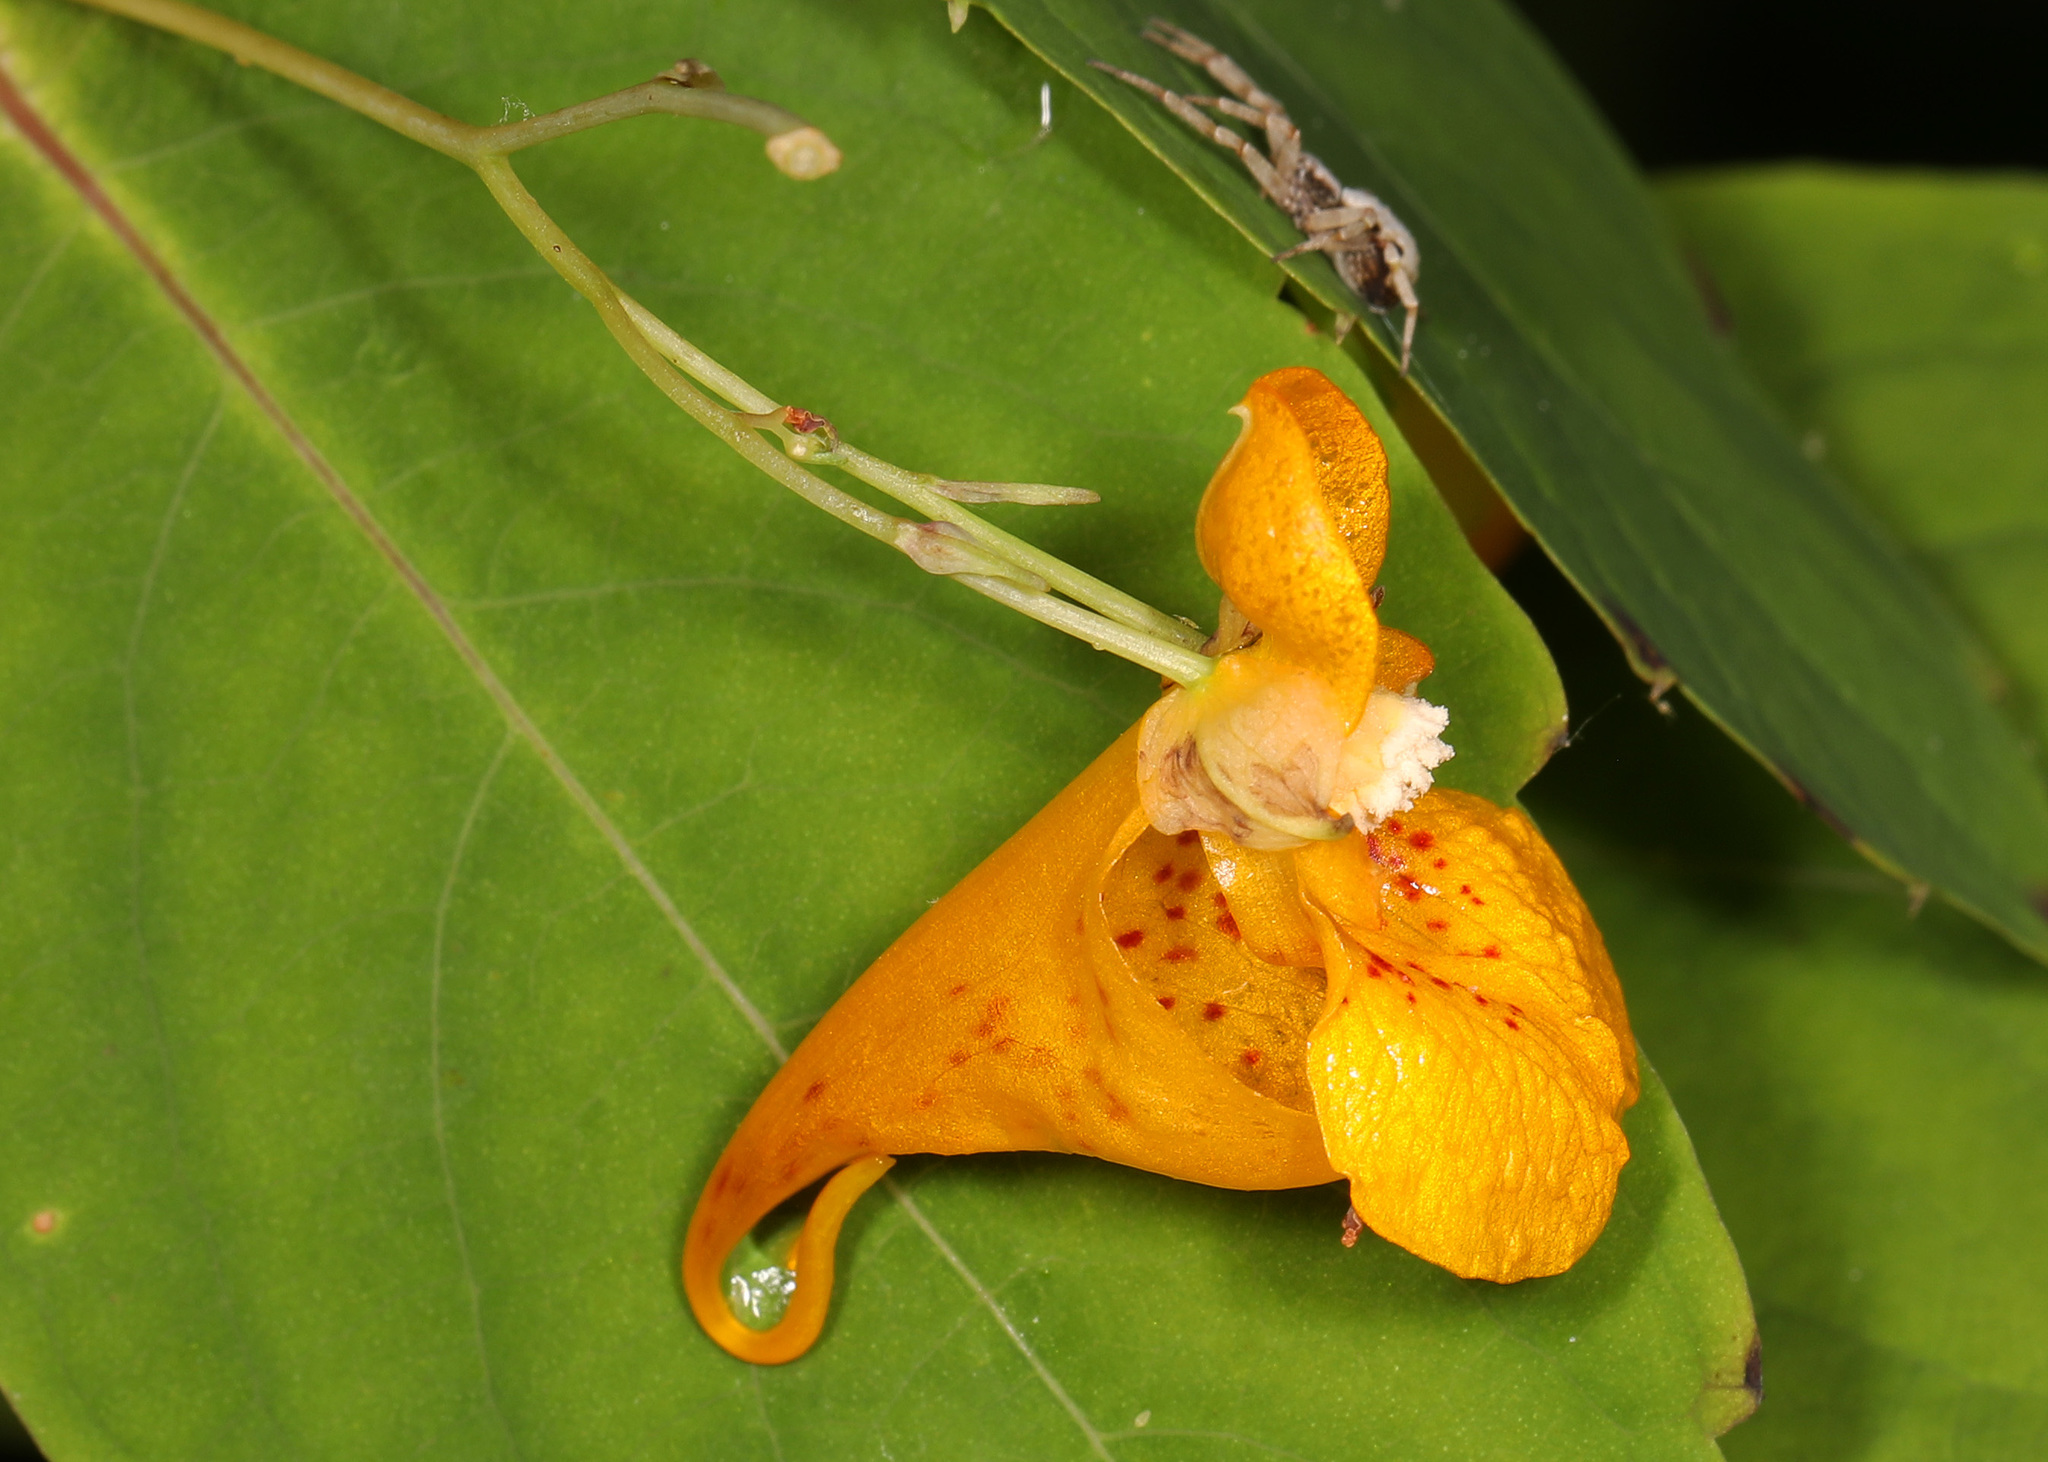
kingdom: Plantae
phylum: Tracheophyta
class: Magnoliopsida
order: Ericales
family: Balsaminaceae
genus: Impatiens
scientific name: Impatiens capensis
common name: Orange balsam
